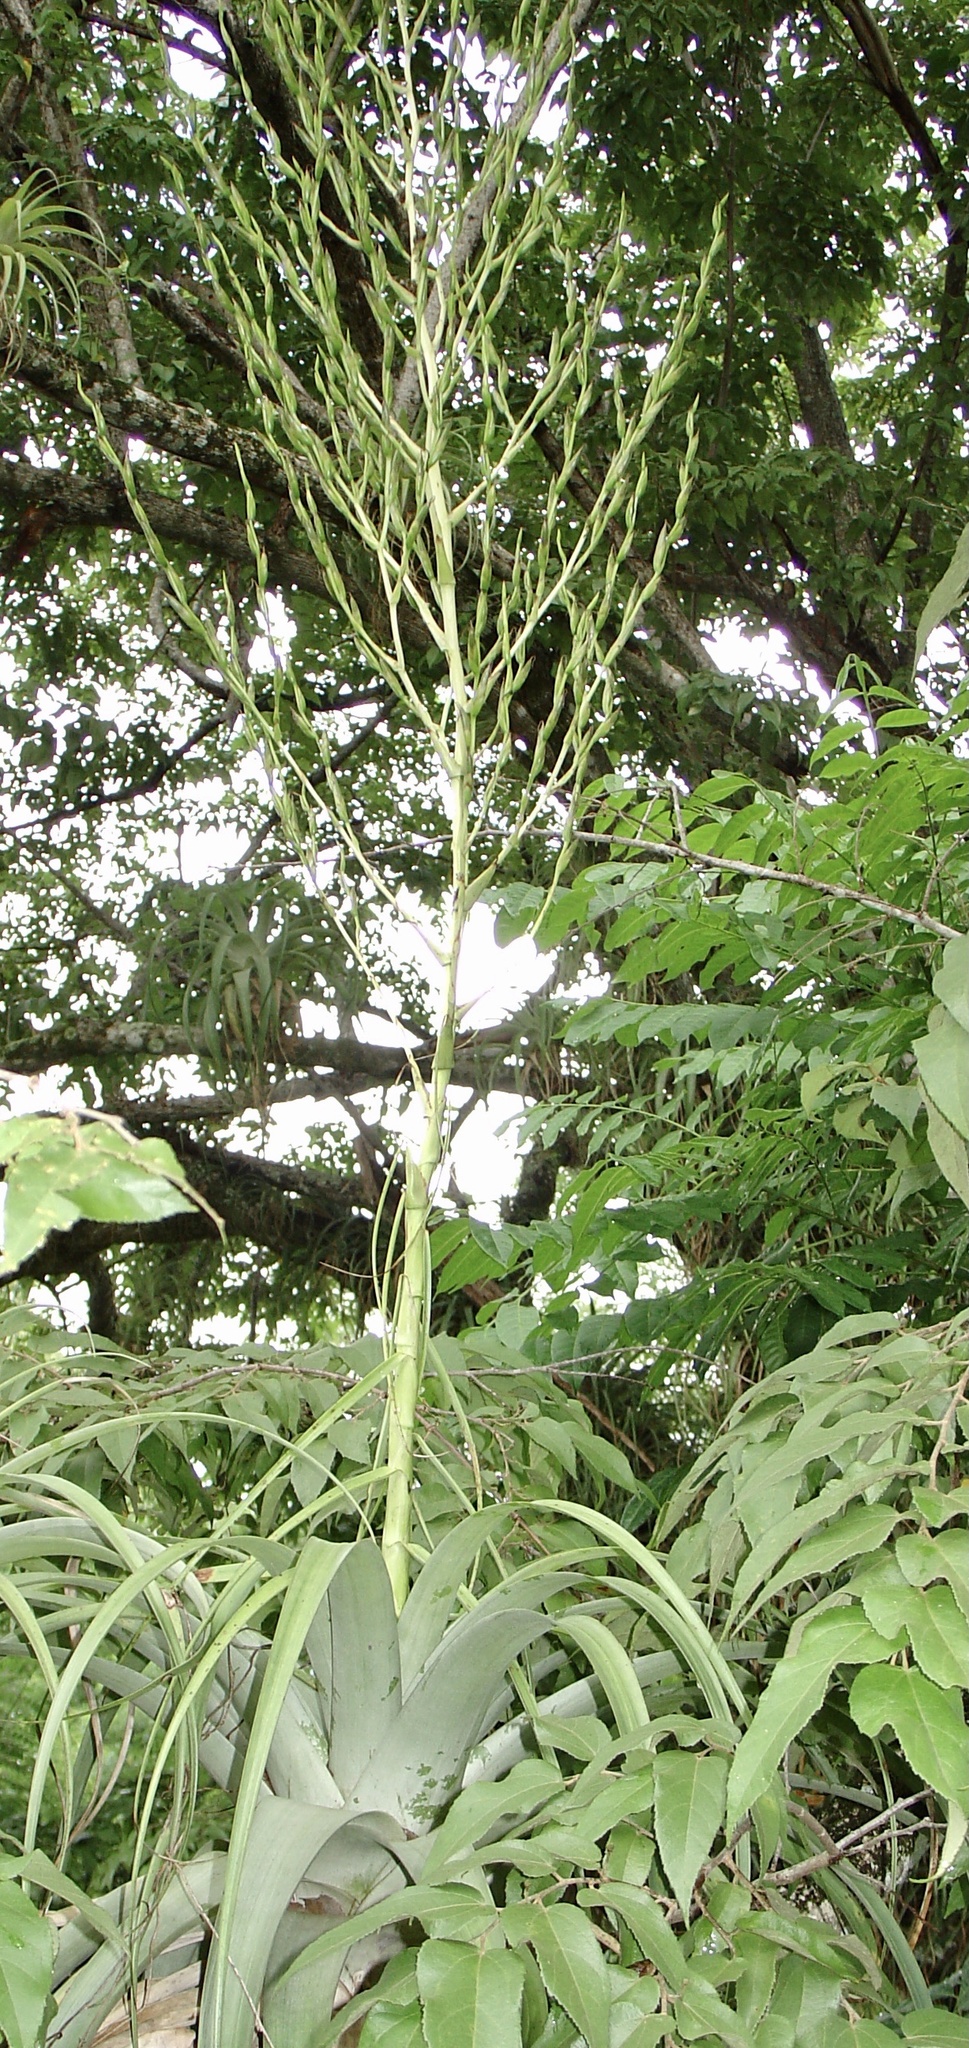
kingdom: Plantae
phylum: Tracheophyta
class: Liliopsida
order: Poales
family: Bromeliaceae
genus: Tillandsia
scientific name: Tillandsia utriculata
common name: Wild pine
